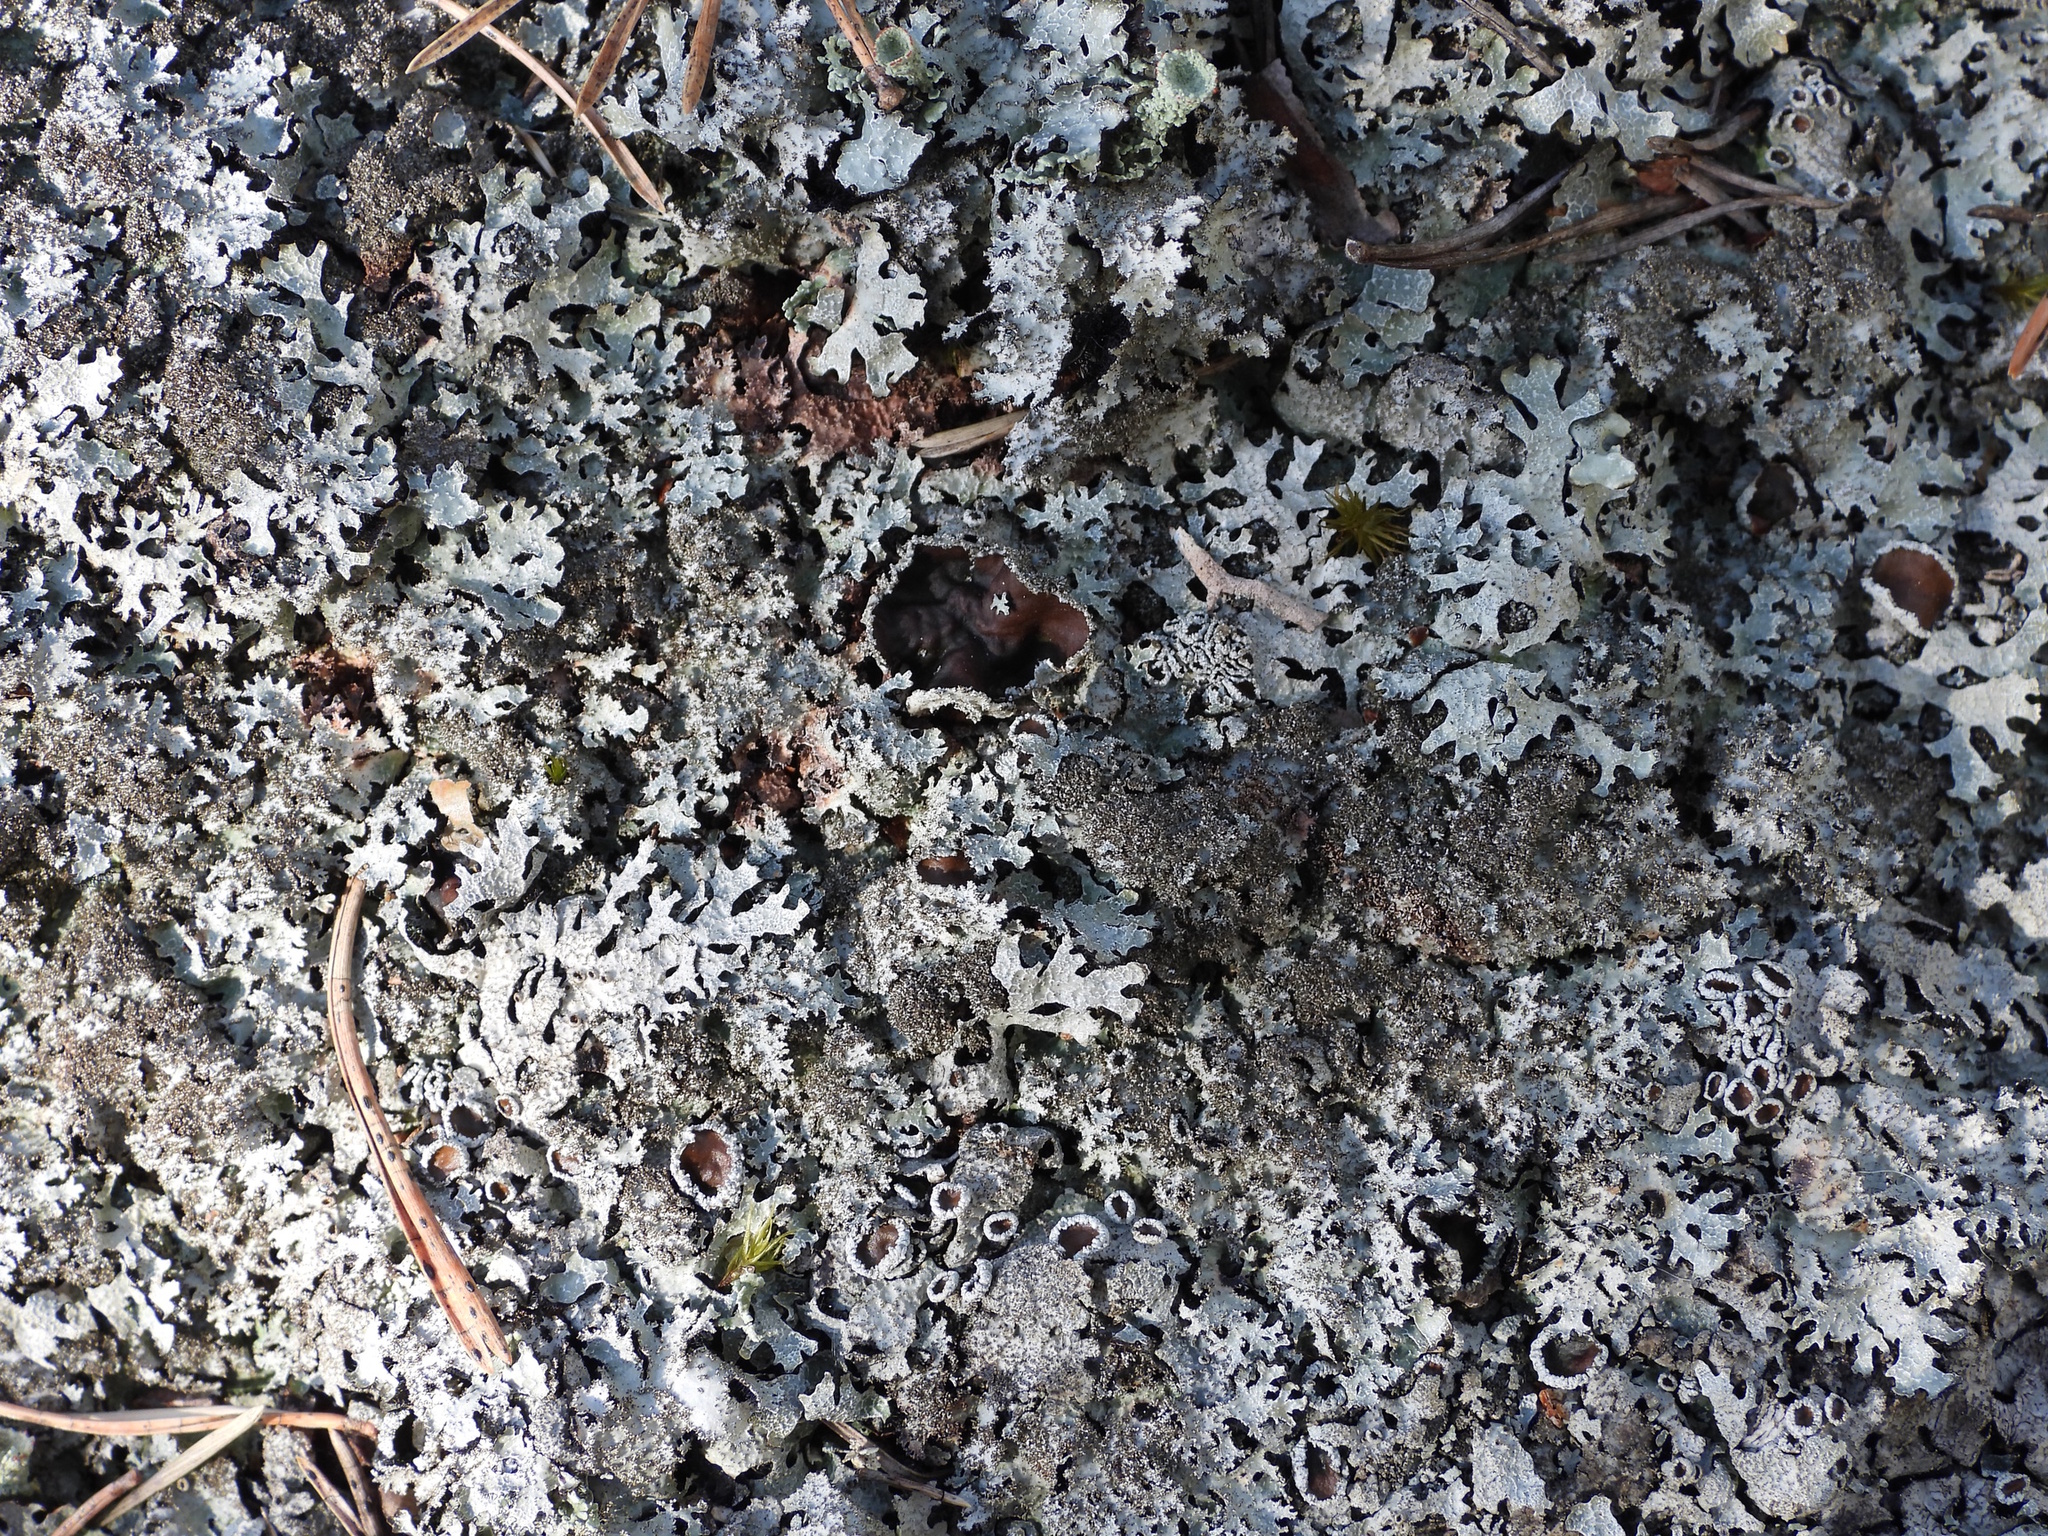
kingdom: Fungi
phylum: Ascomycota
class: Lecanoromycetes
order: Lecanorales
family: Parmeliaceae
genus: Parmelia
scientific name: Parmelia saxatilis
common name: Salted shield lichen
